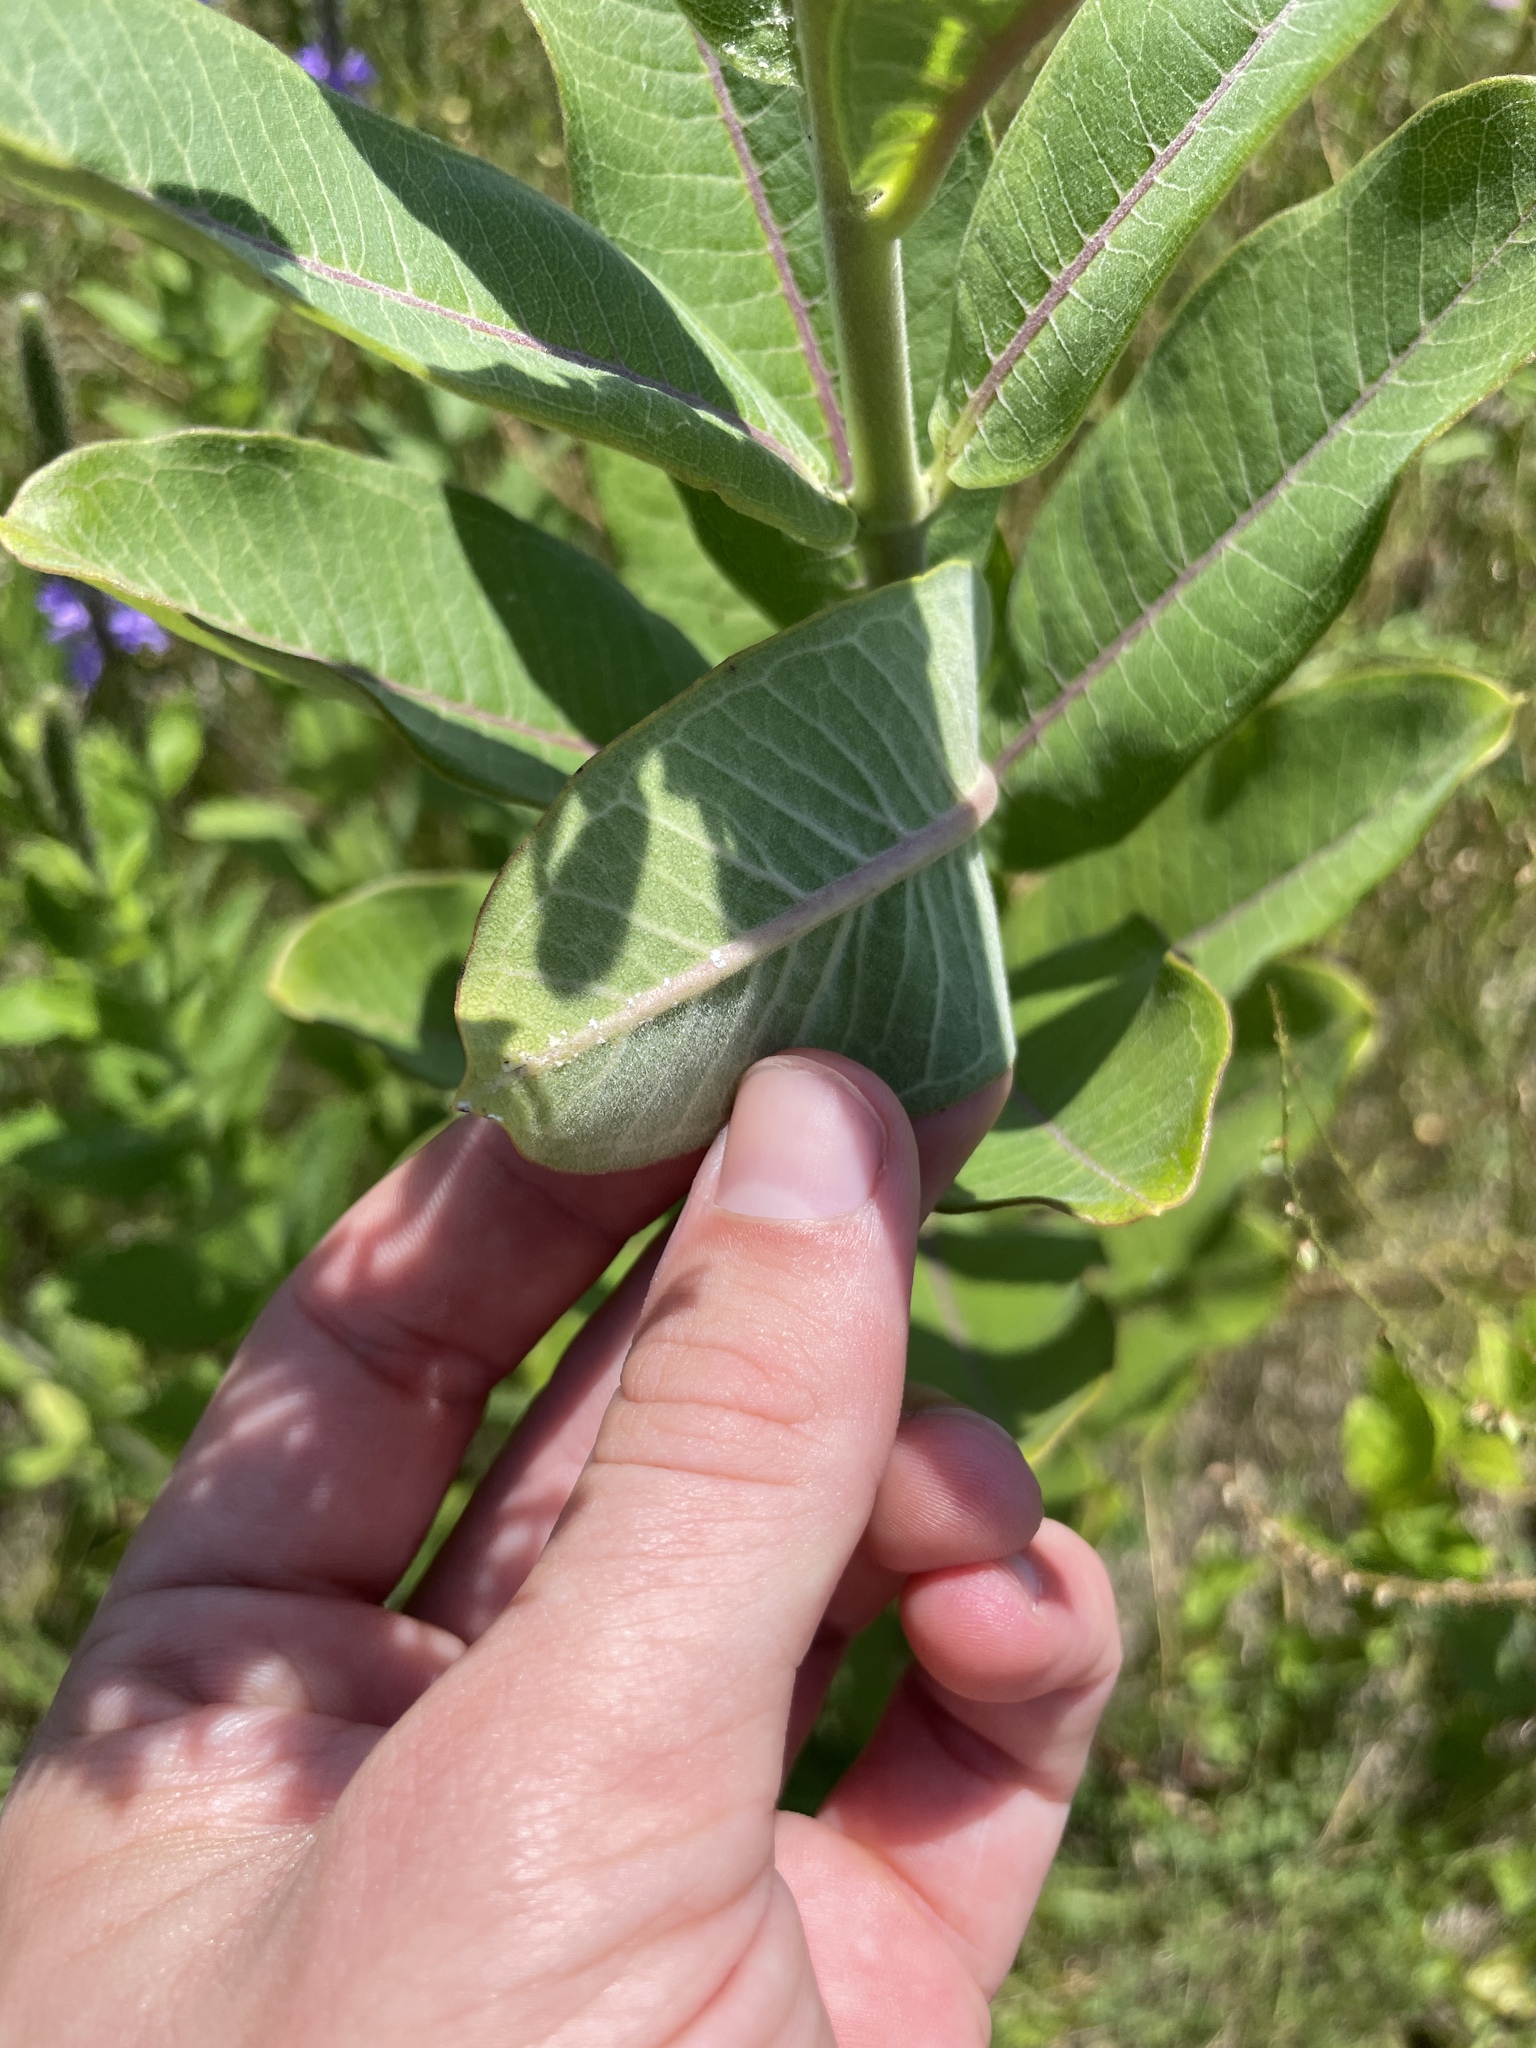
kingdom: Plantae
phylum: Tracheophyta
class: Magnoliopsida
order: Gentianales
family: Apocynaceae
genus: Asclepias
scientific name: Asclepias syriaca
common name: Common milkweed
